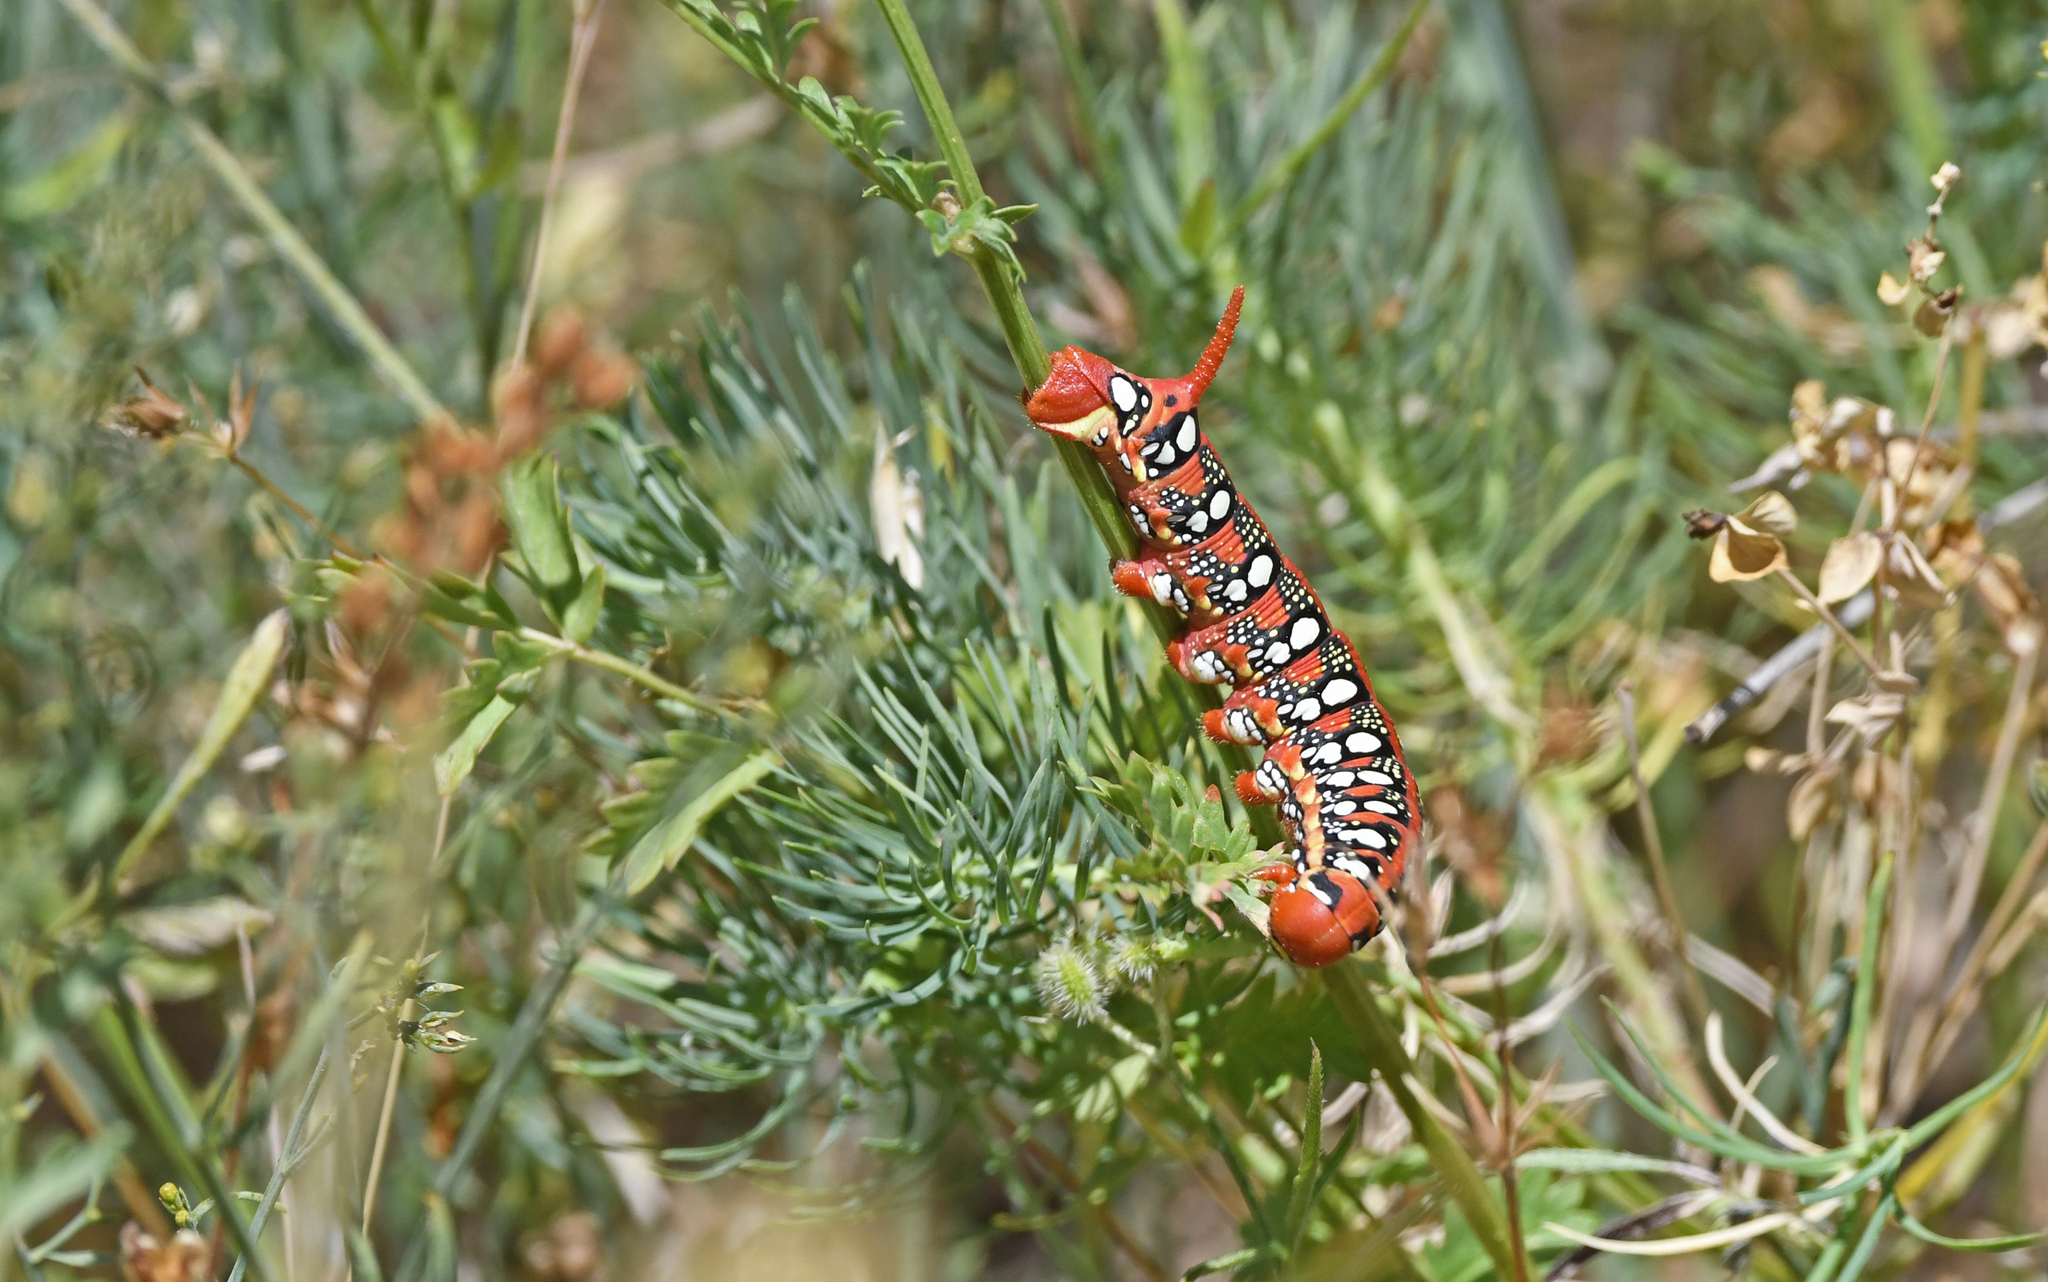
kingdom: Animalia
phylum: Arthropoda
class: Insecta
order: Lepidoptera
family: Sphingidae
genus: Hyles
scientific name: Hyles euphorbiae
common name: Spurge hawk-moth
